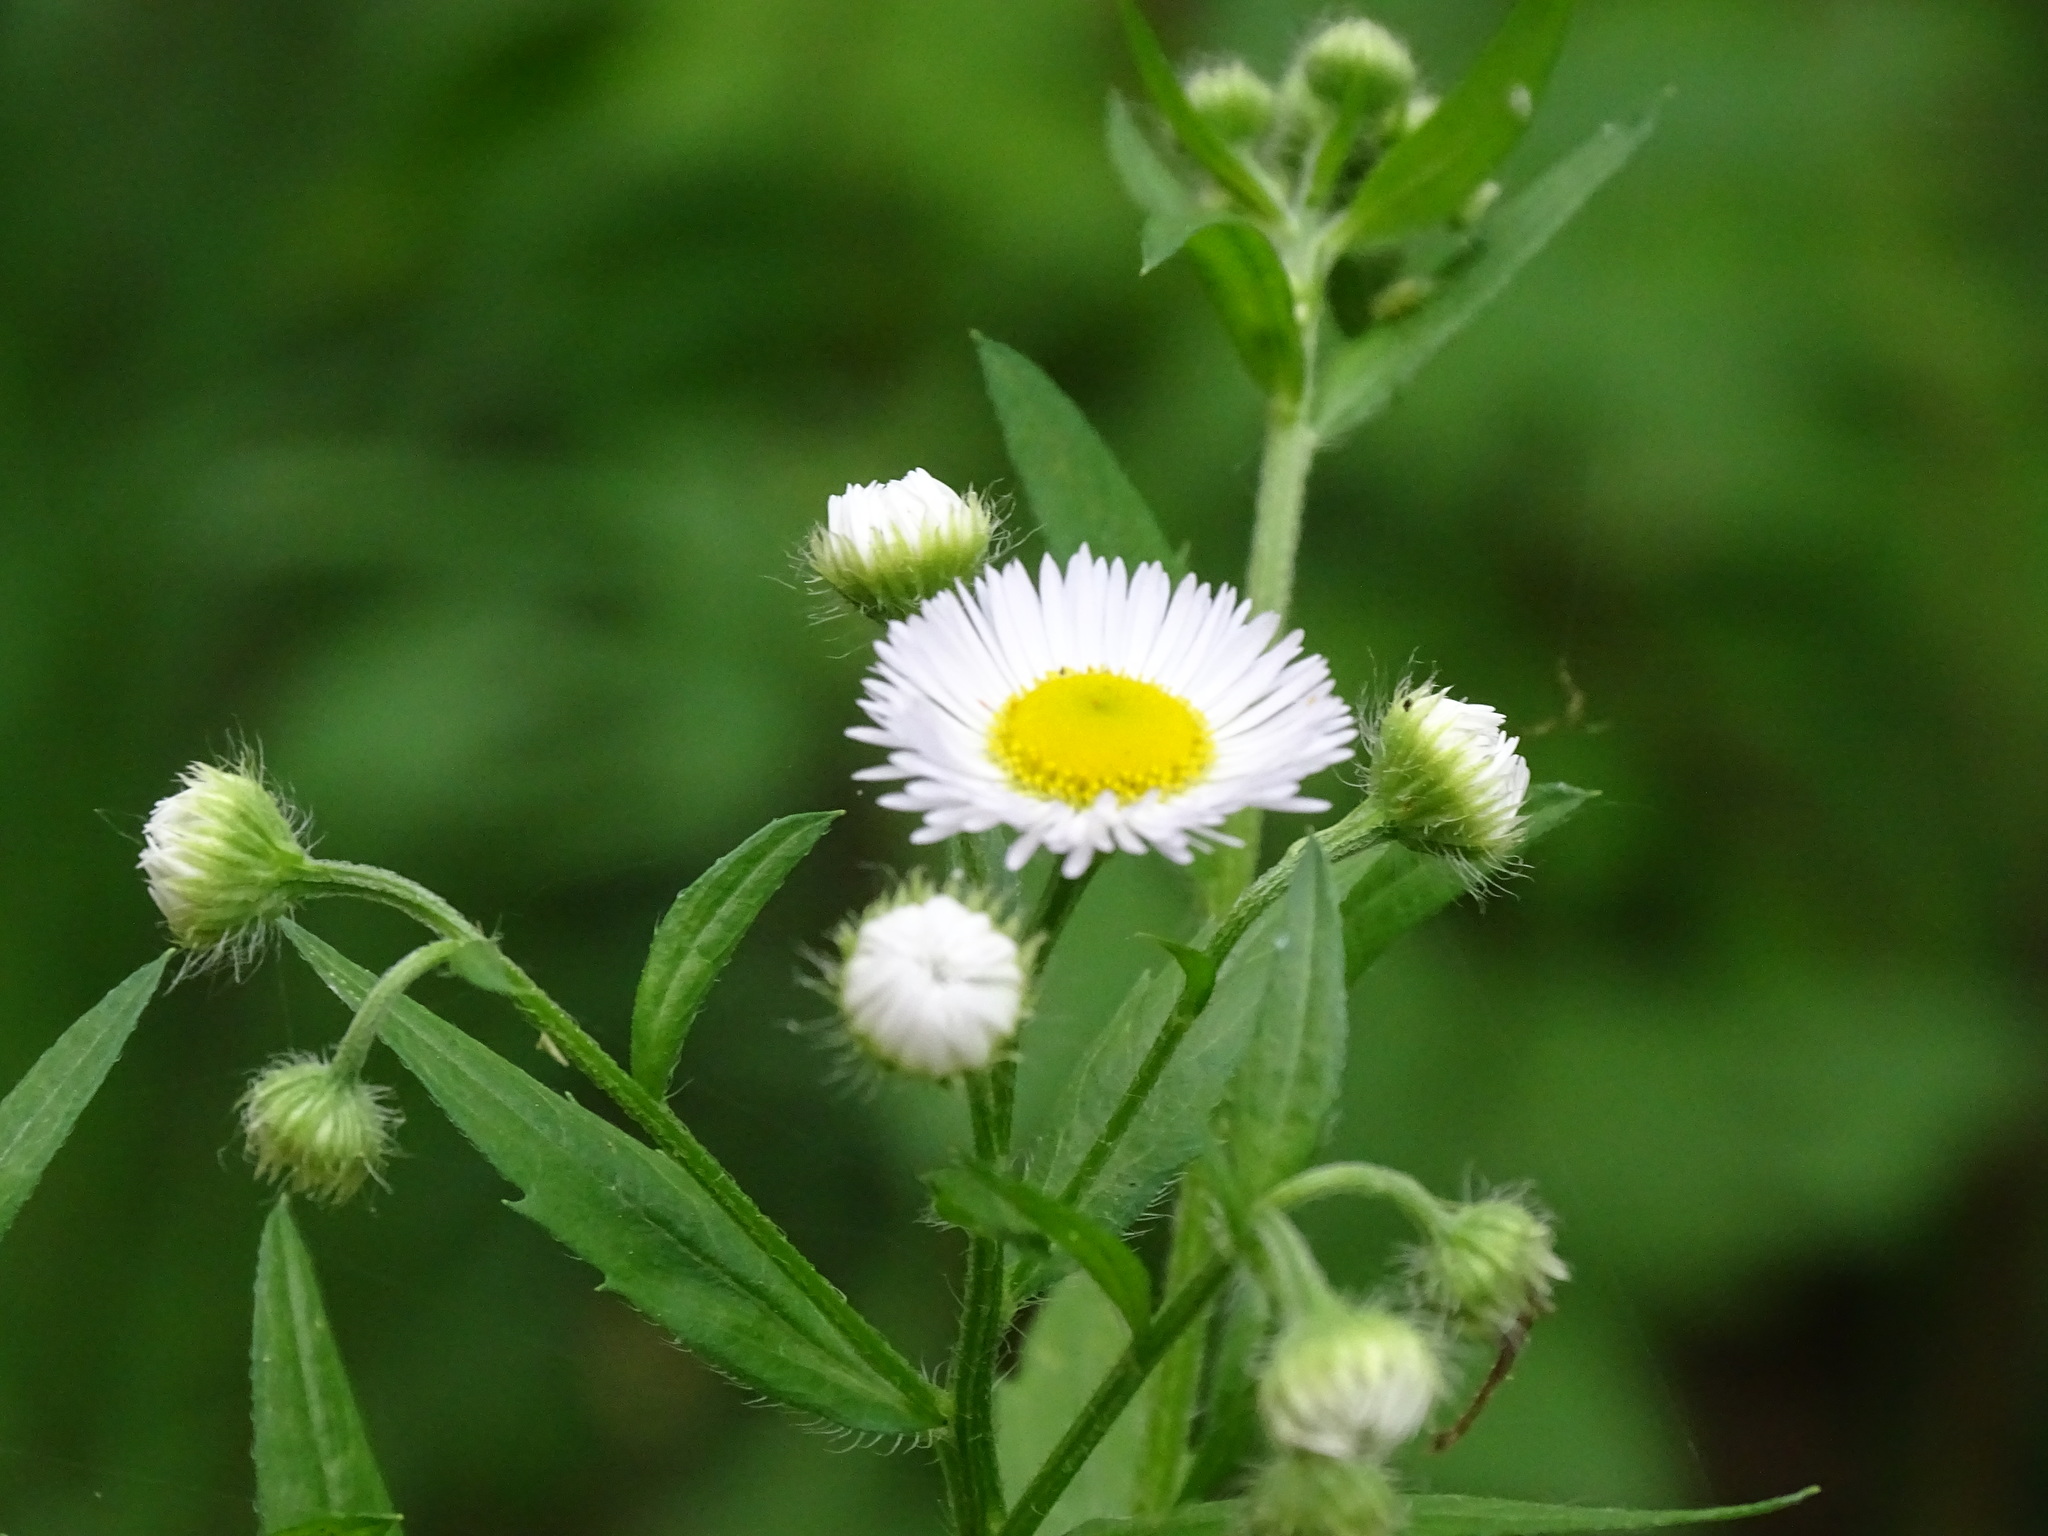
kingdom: Plantae
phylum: Tracheophyta
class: Magnoliopsida
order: Asterales
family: Asteraceae
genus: Erigeron
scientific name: Erigeron annuus
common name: Tall fleabane
